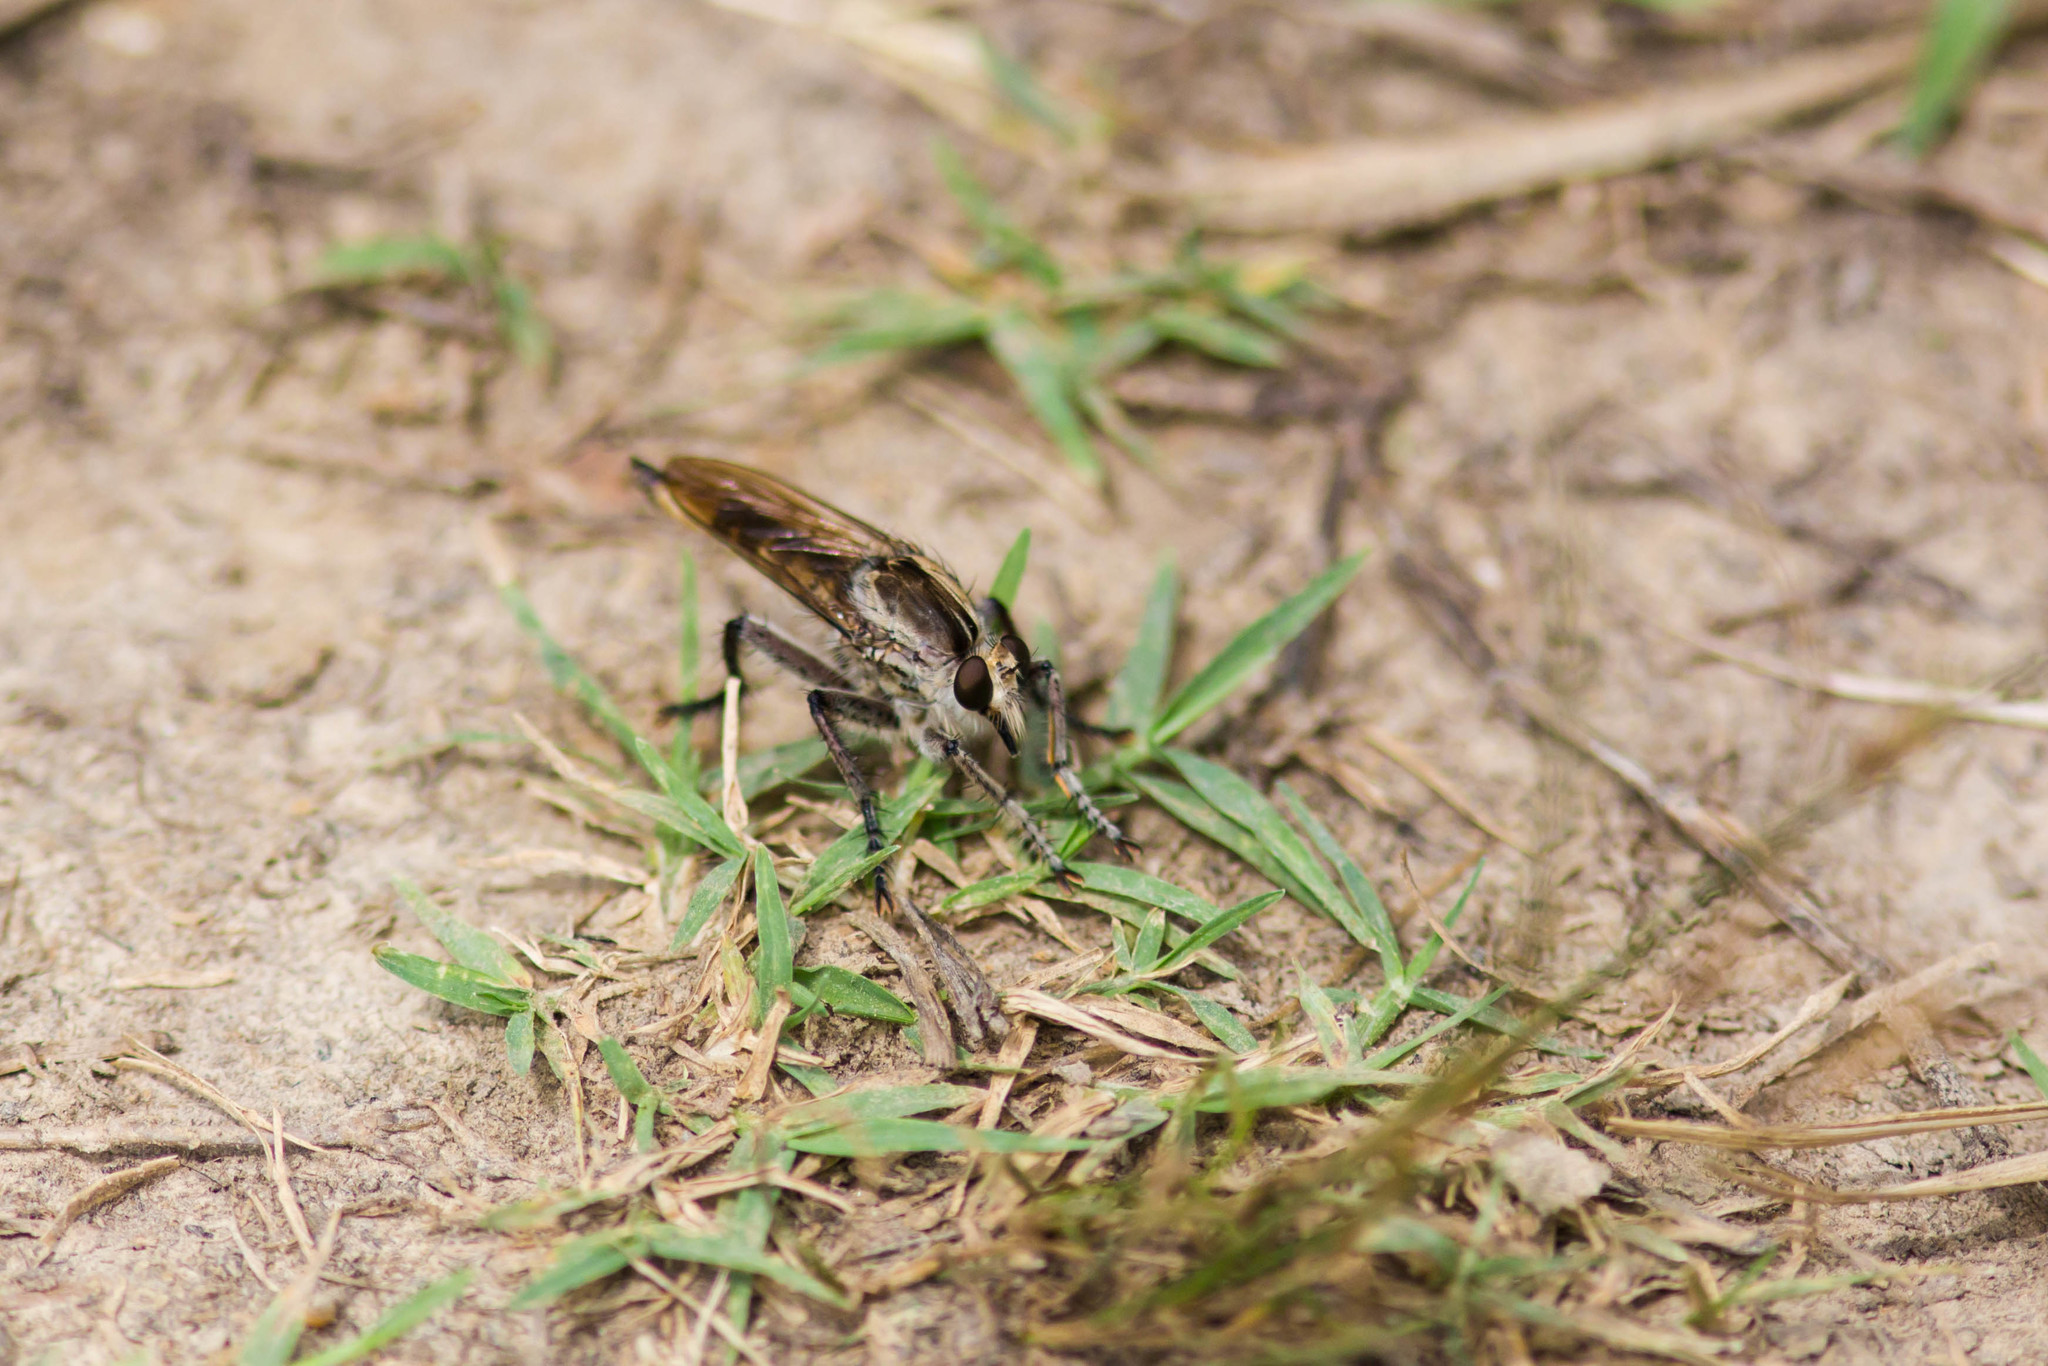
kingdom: Animalia
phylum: Arthropoda
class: Insecta
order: Diptera
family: Asilidae
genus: Triorla
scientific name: Triorla interrupta
